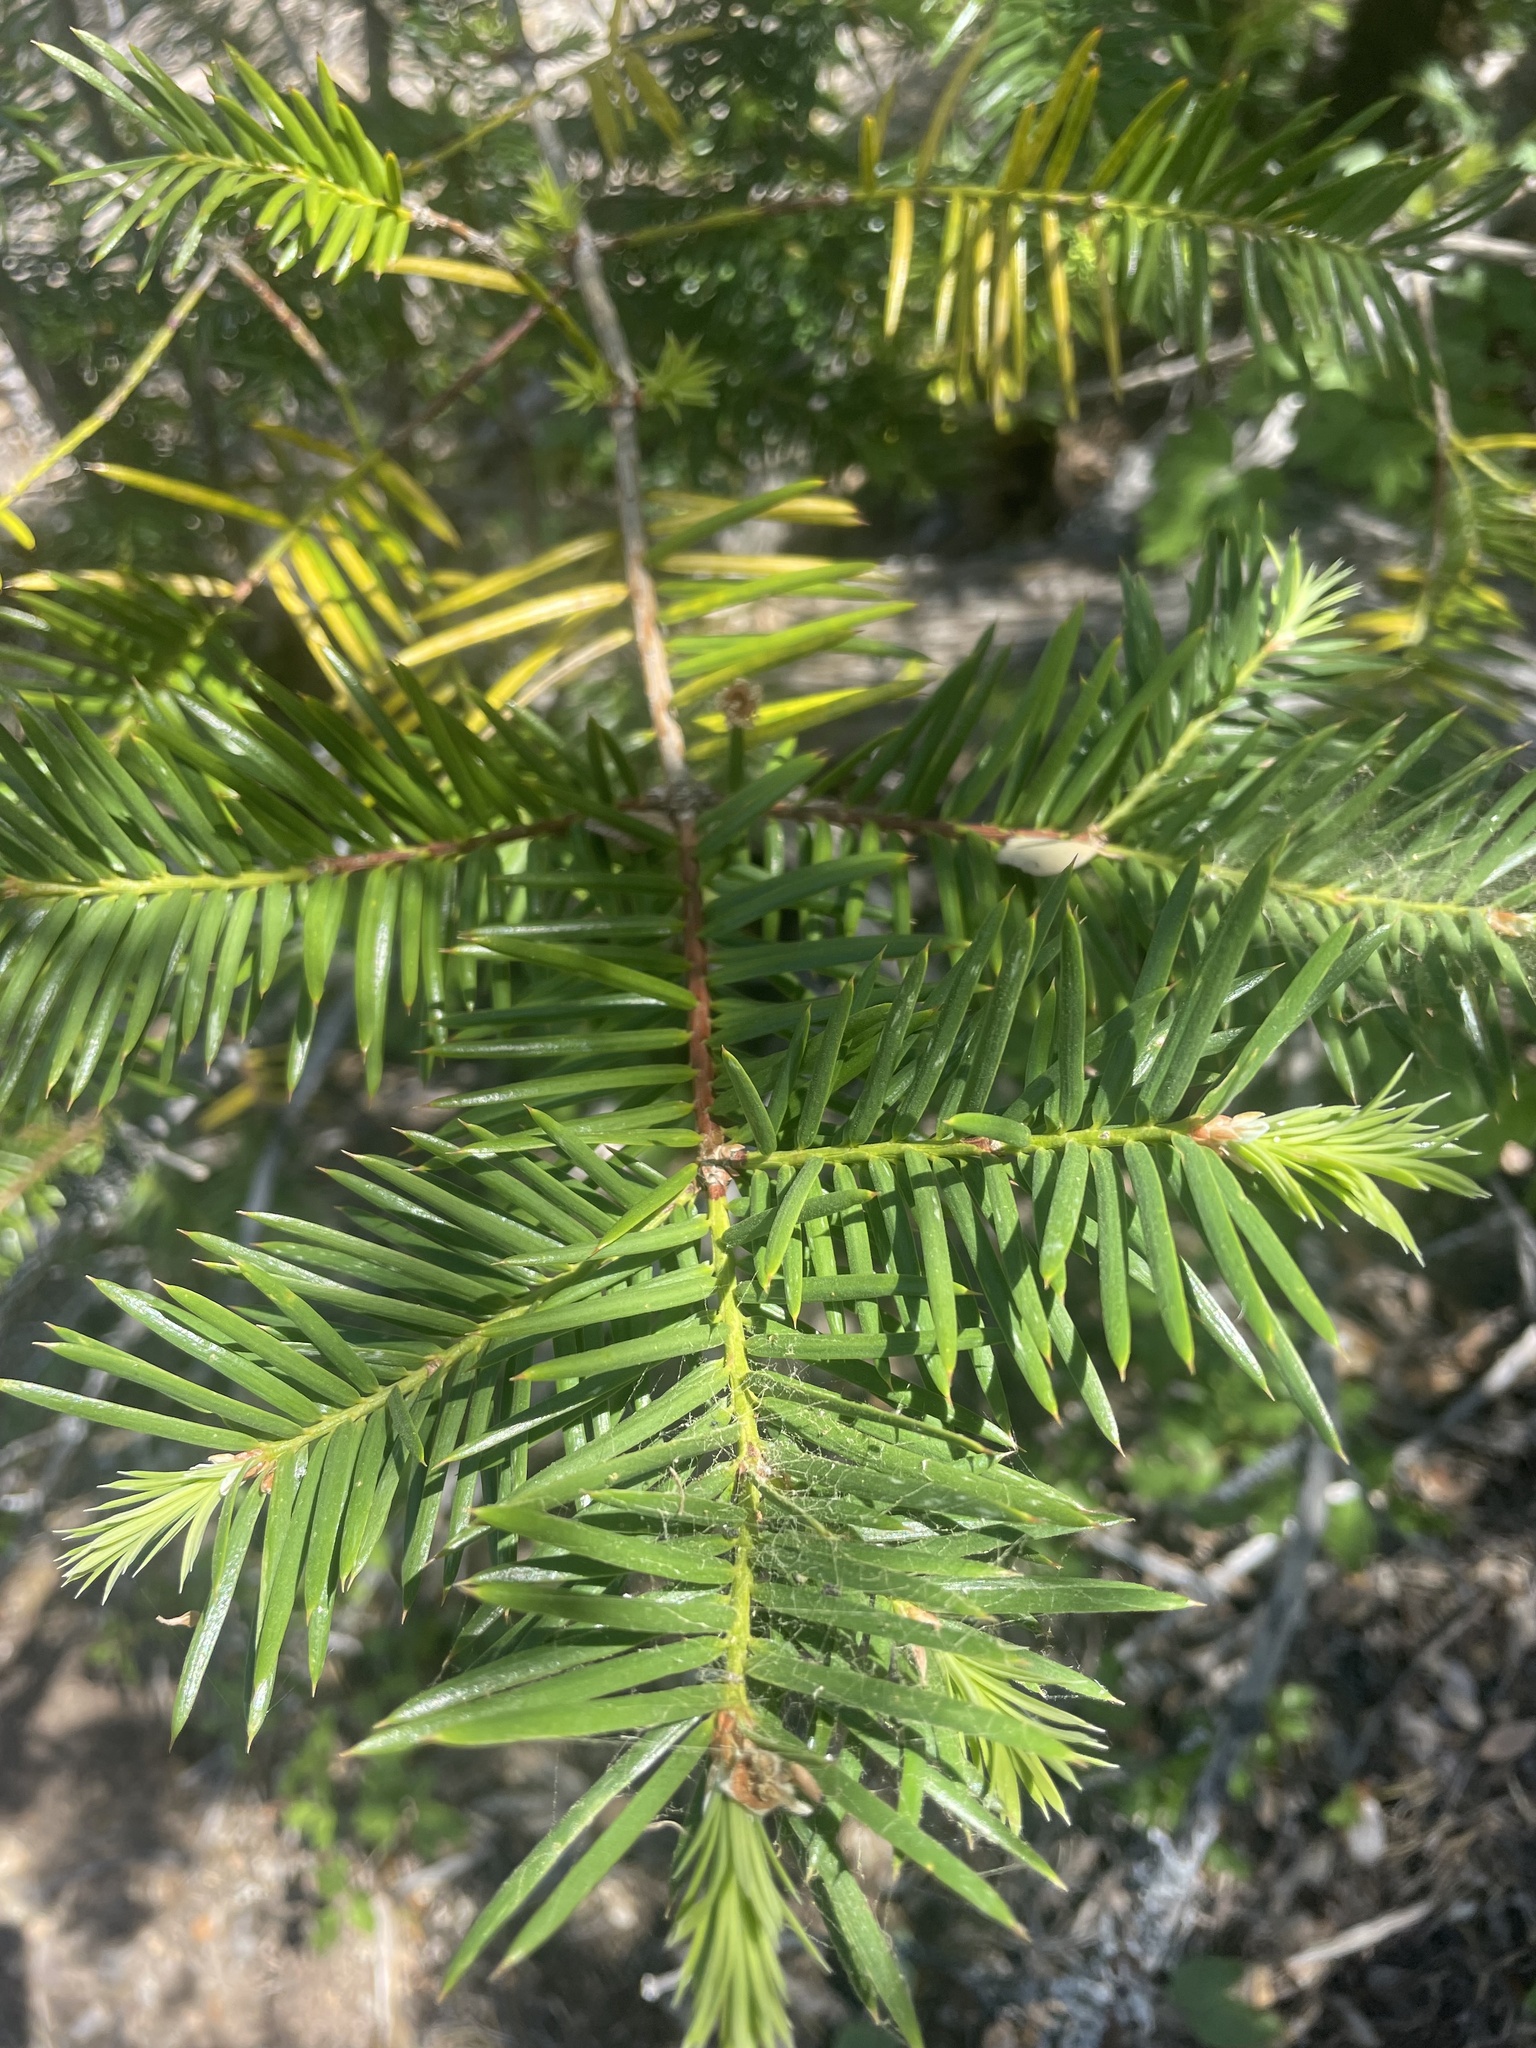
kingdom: Plantae
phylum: Tracheophyta
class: Pinopsida
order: Pinales
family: Taxaceae
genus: Torreya
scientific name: Torreya californica
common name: California torreya
